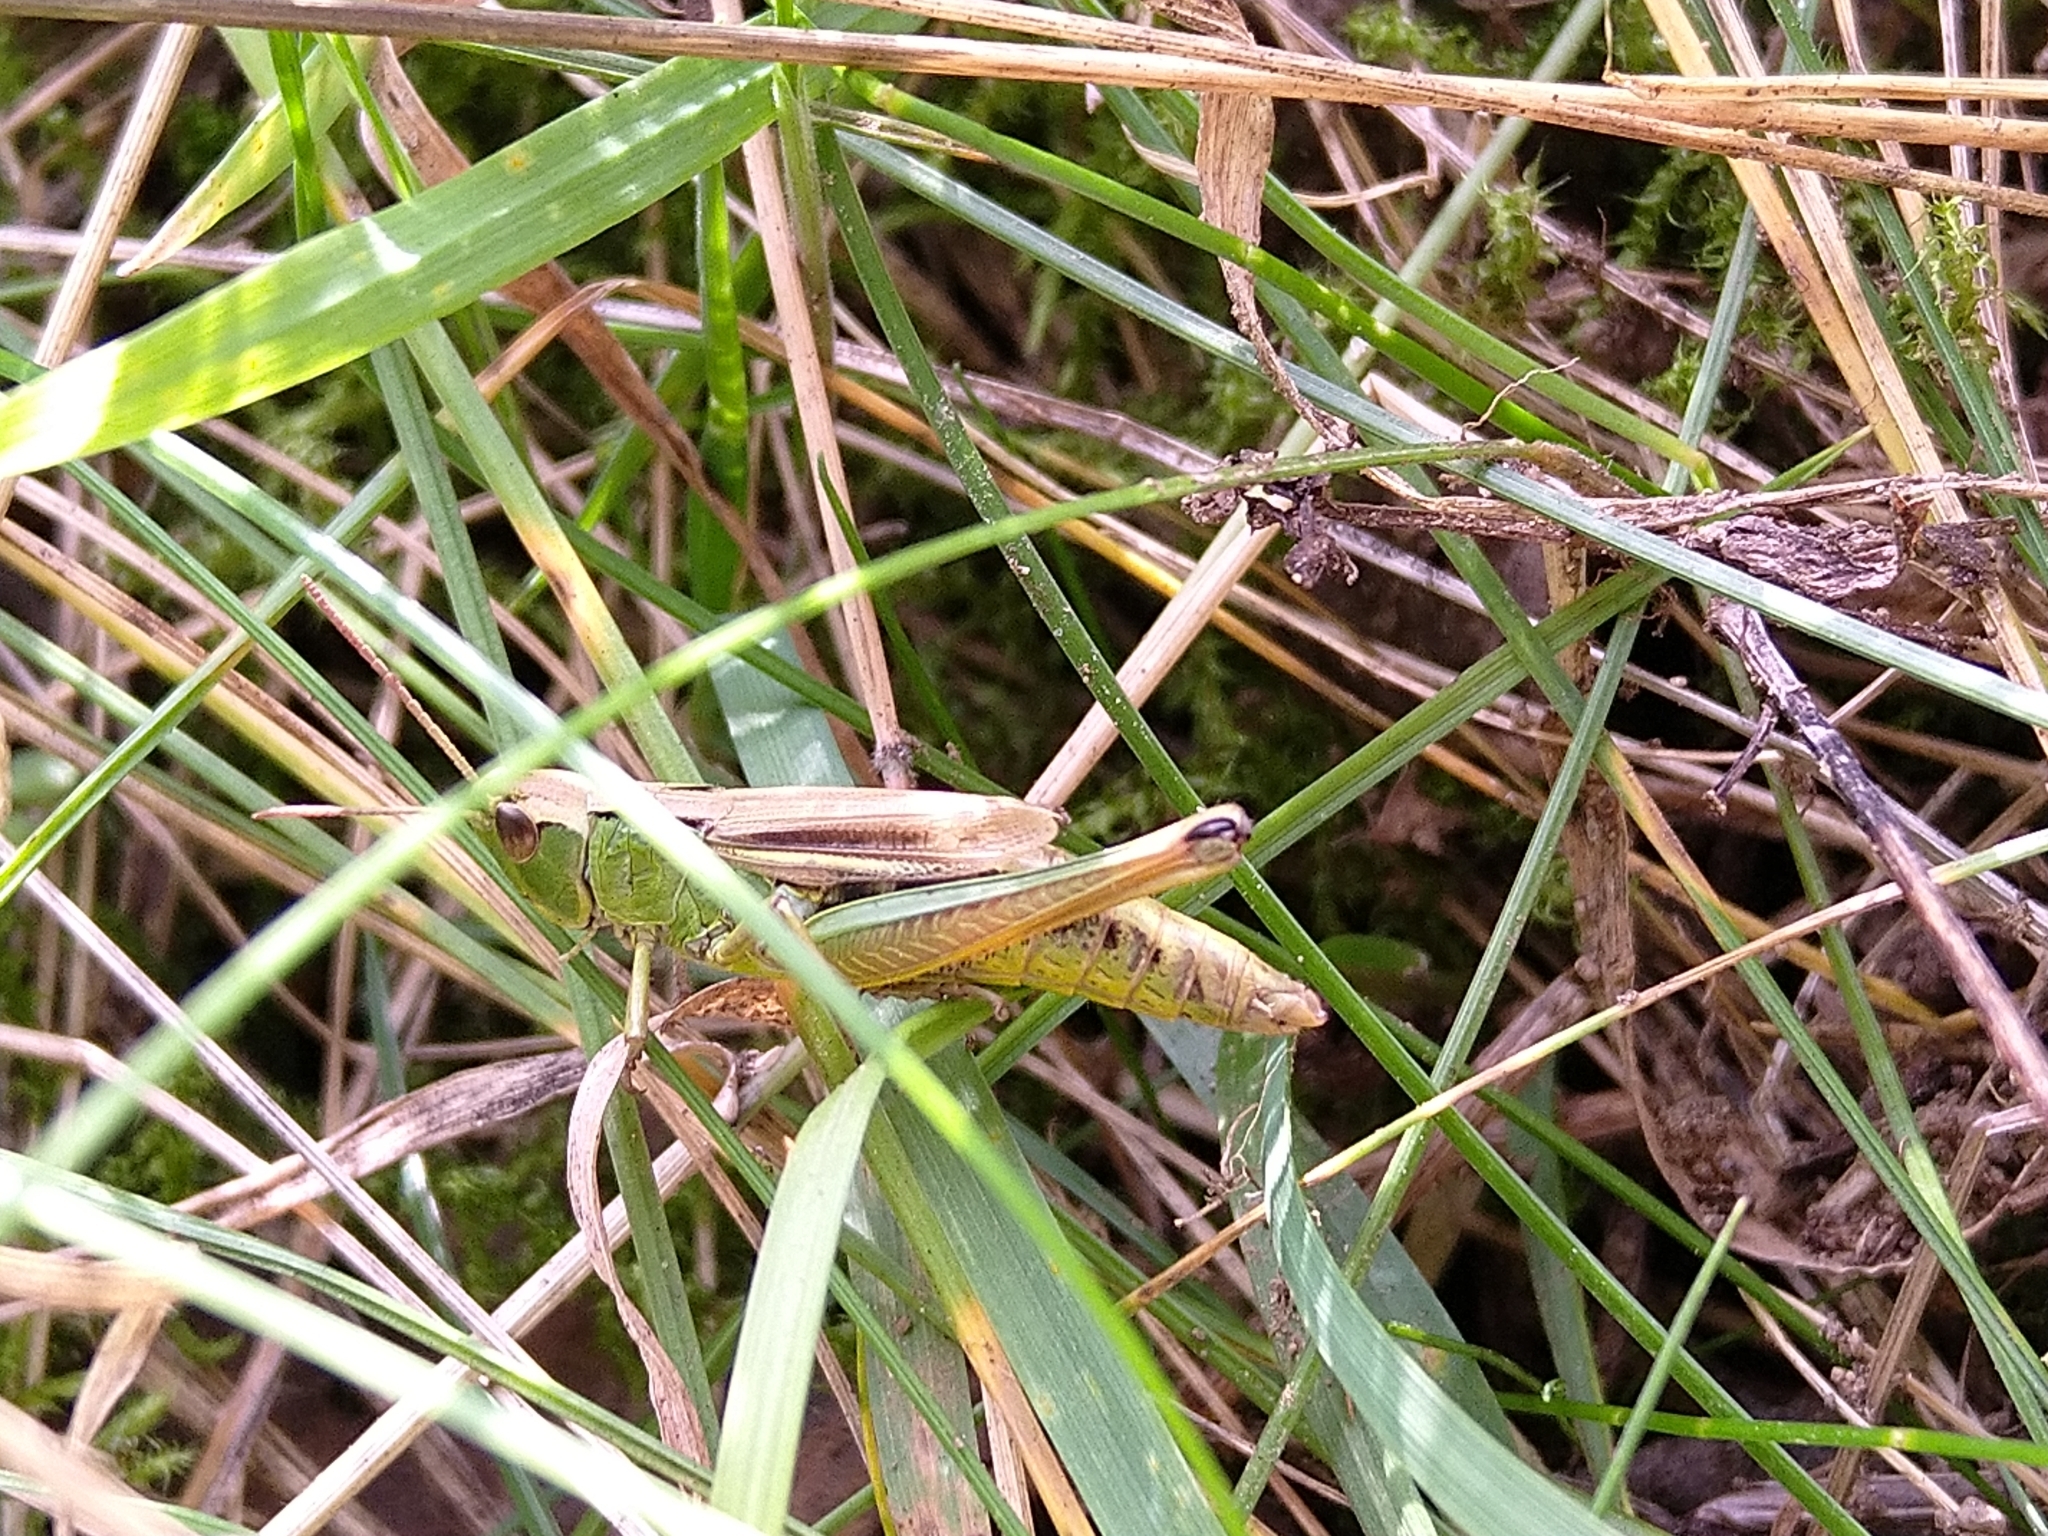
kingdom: Animalia
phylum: Arthropoda
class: Insecta
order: Orthoptera
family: Acrididae
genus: Pseudochorthippus
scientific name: Pseudochorthippus montanus
